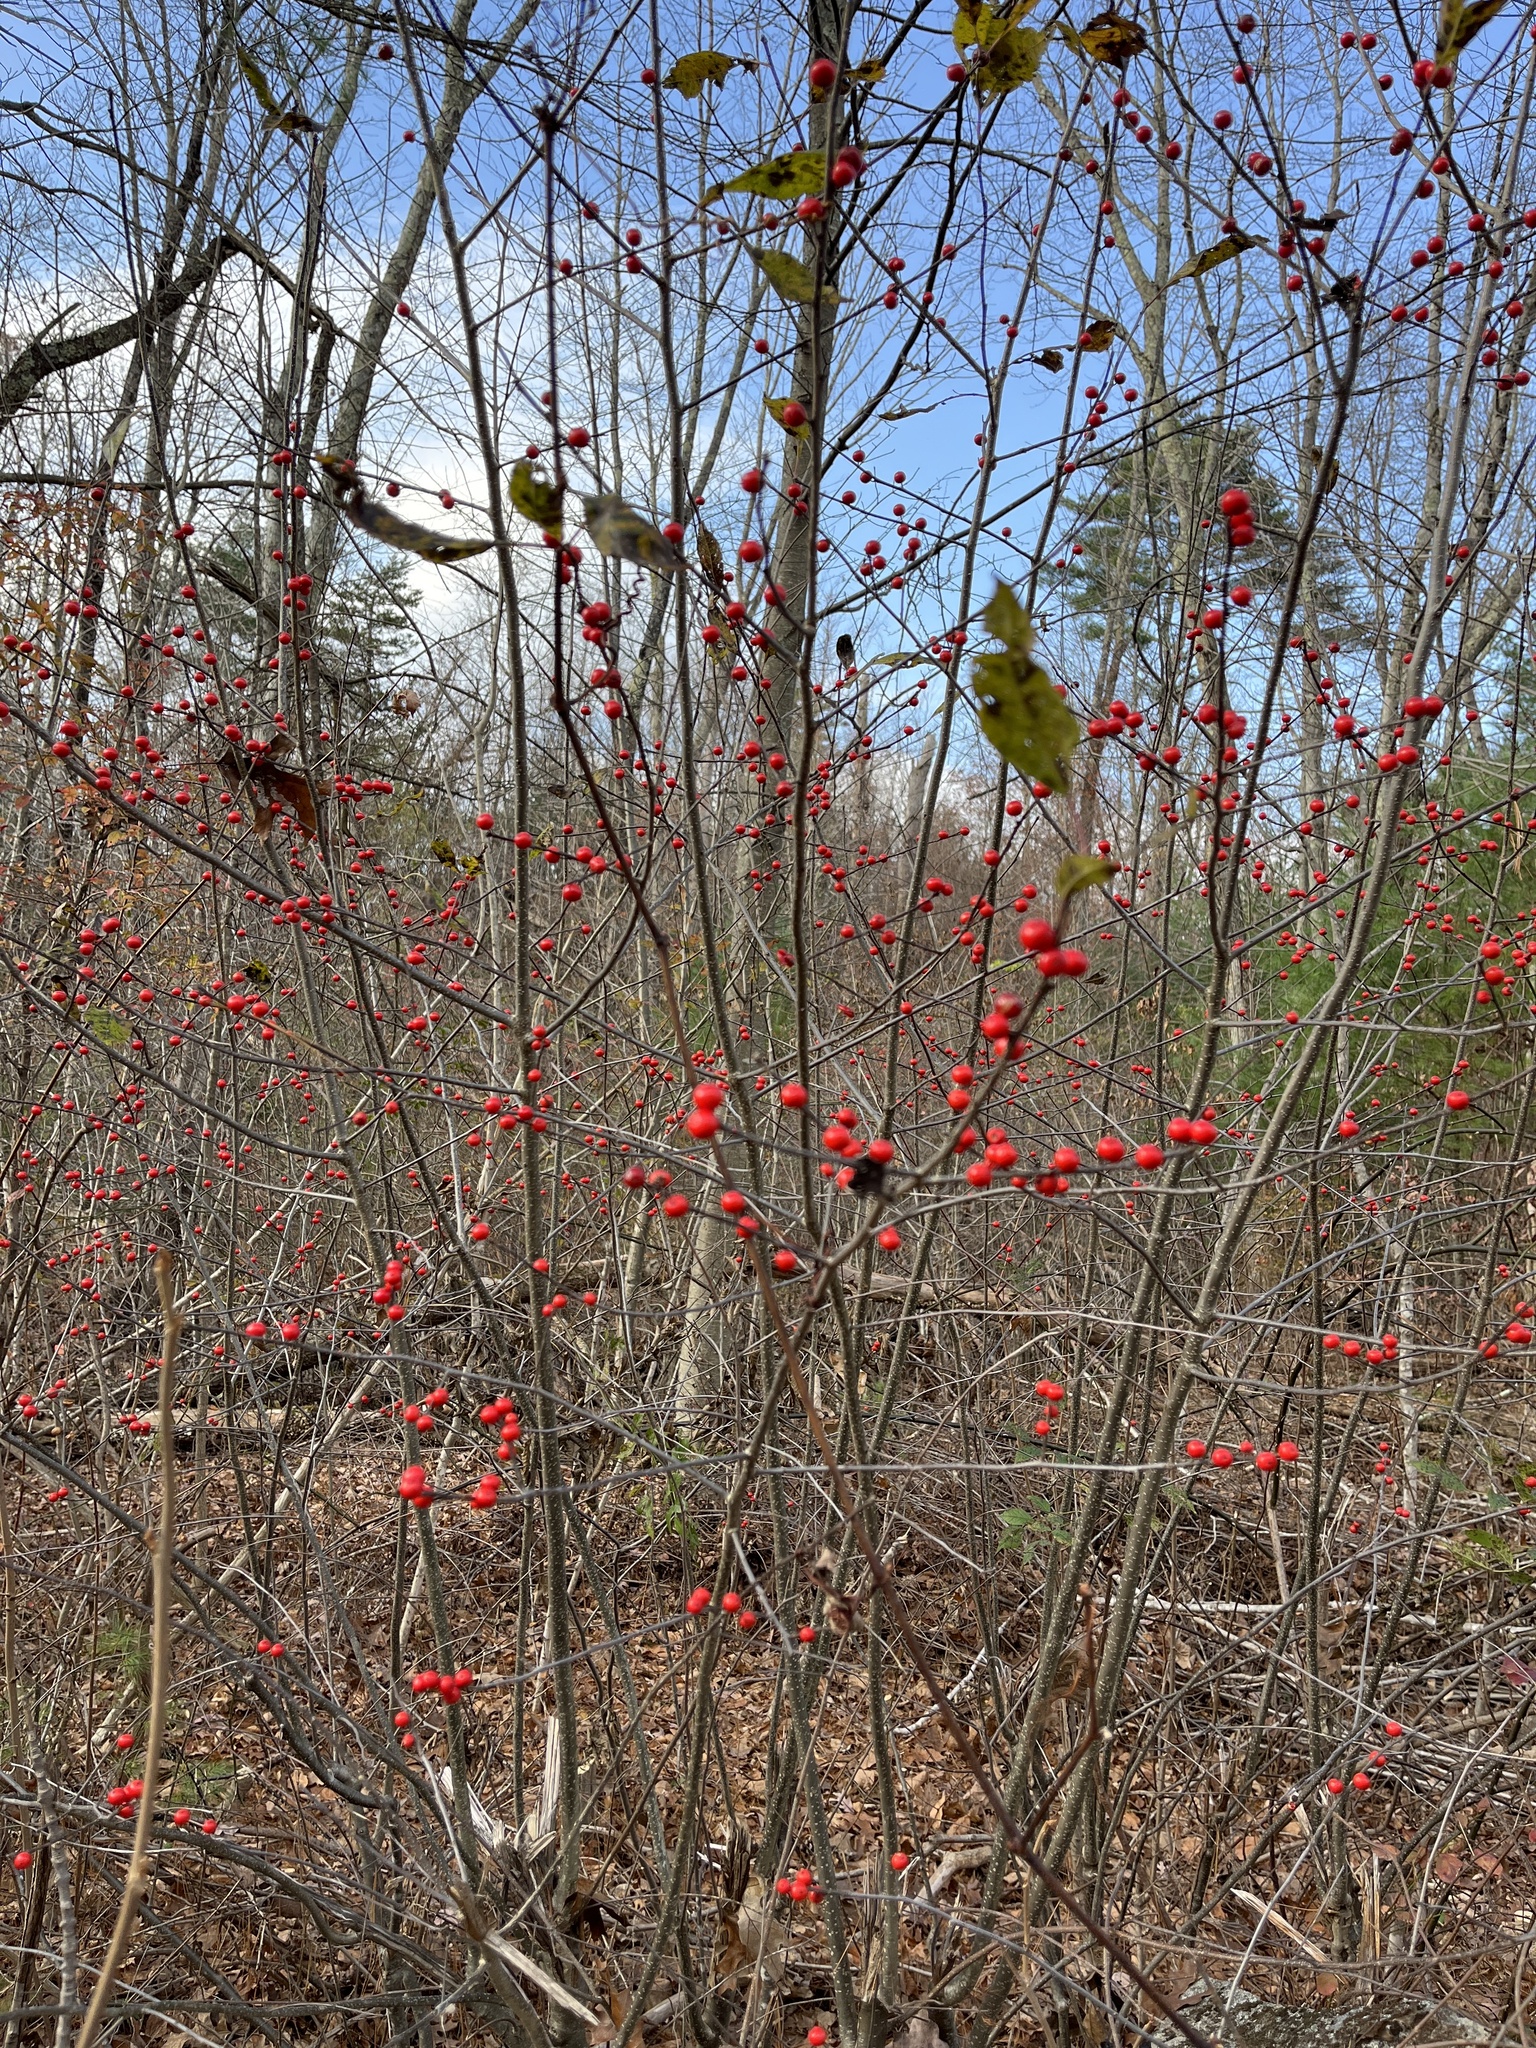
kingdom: Plantae
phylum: Tracheophyta
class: Magnoliopsida
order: Aquifoliales
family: Aquifoliaceae
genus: Ilex
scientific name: Ilex verticillata
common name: Virginia winterberry
